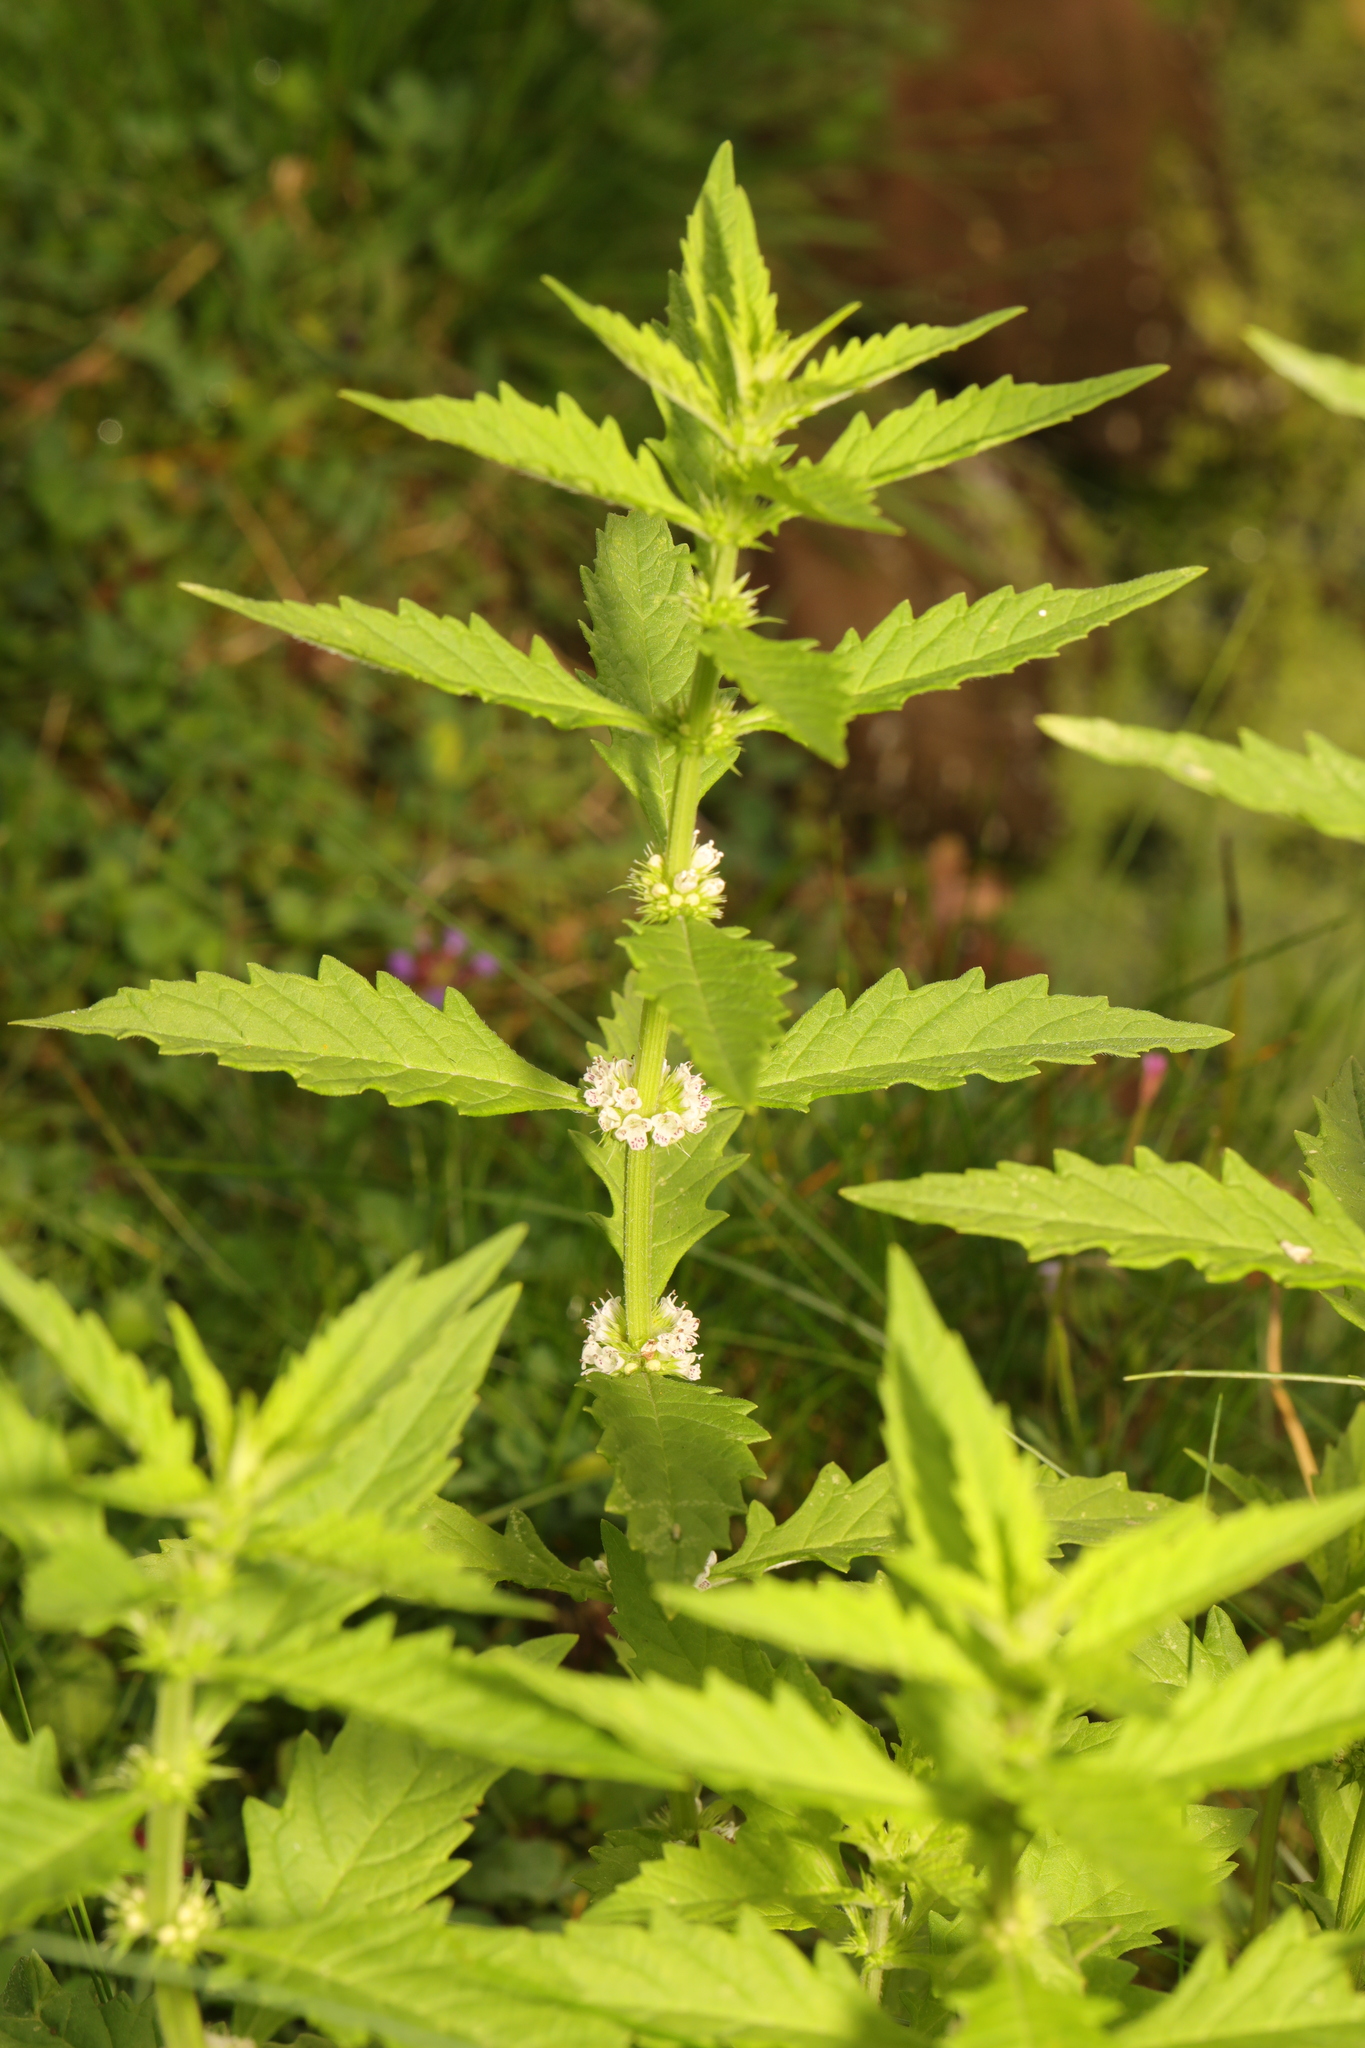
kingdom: Plantae
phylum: Tracheophyta
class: Magnoliopsida
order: Lamiales
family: Lamiaceae
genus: Lycopus
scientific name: Lycopus europaeus
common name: European bugleweed
